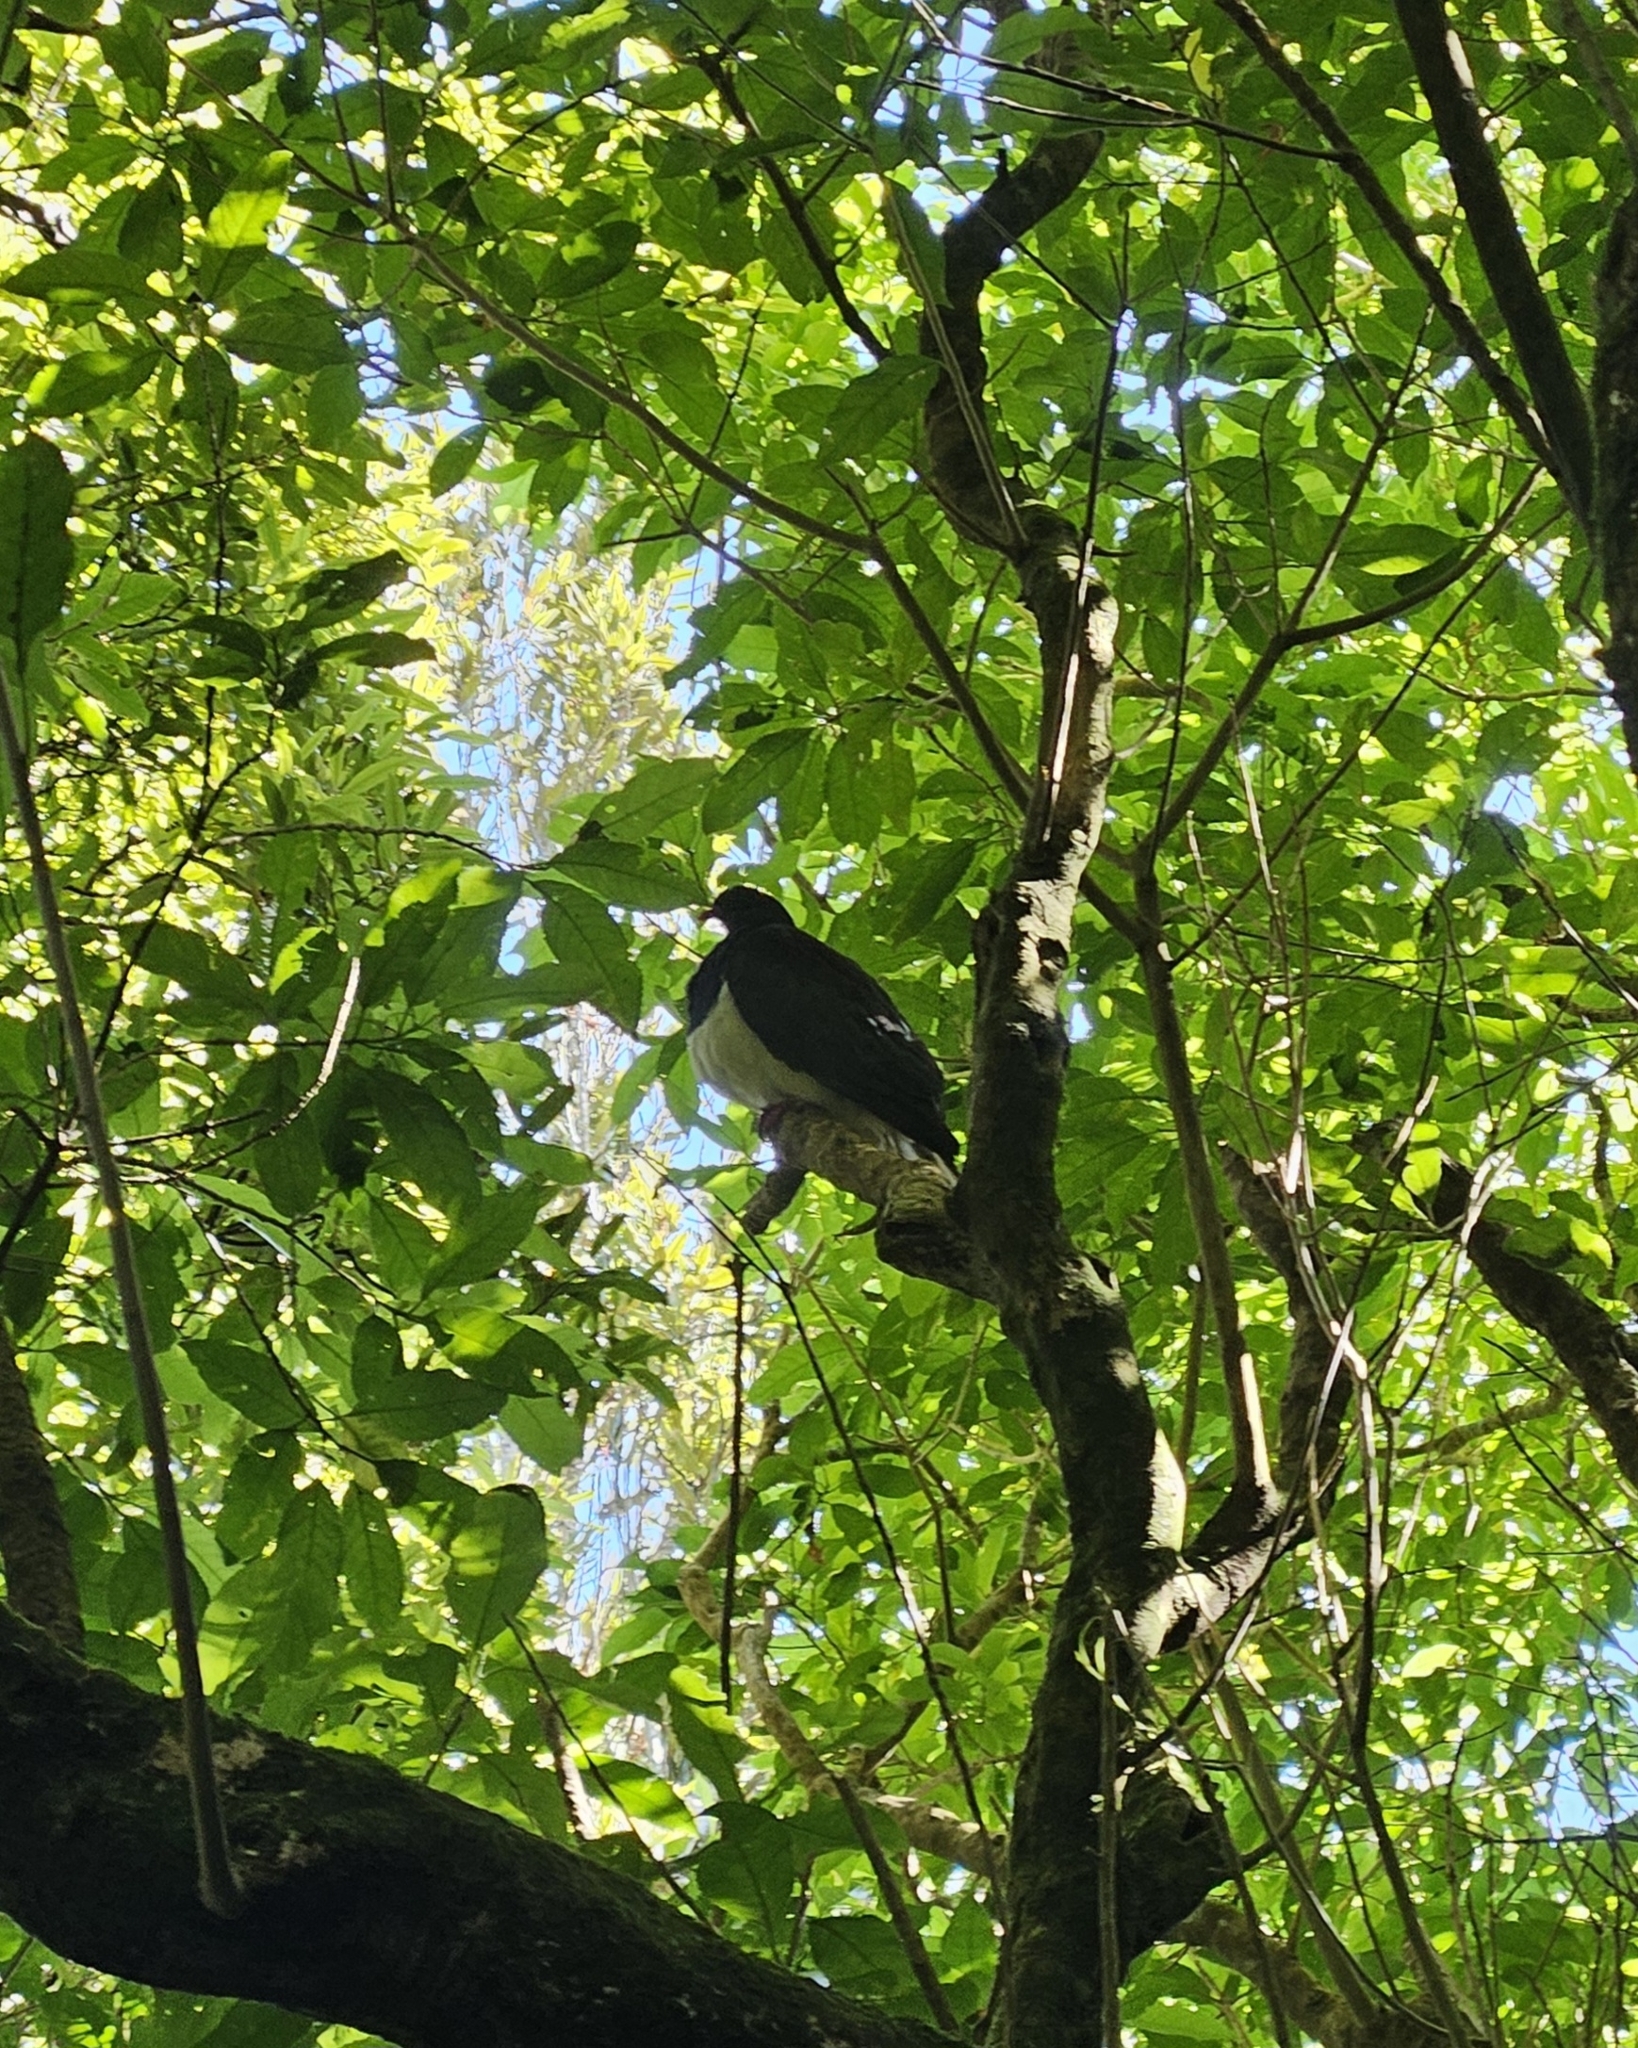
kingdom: Animalia
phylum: Chordata
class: Aves
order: Columbiformes
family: Columbidae
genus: Hemiphaga
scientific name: Hemiphaga novaeseelandiae
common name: New zealand pigeon
